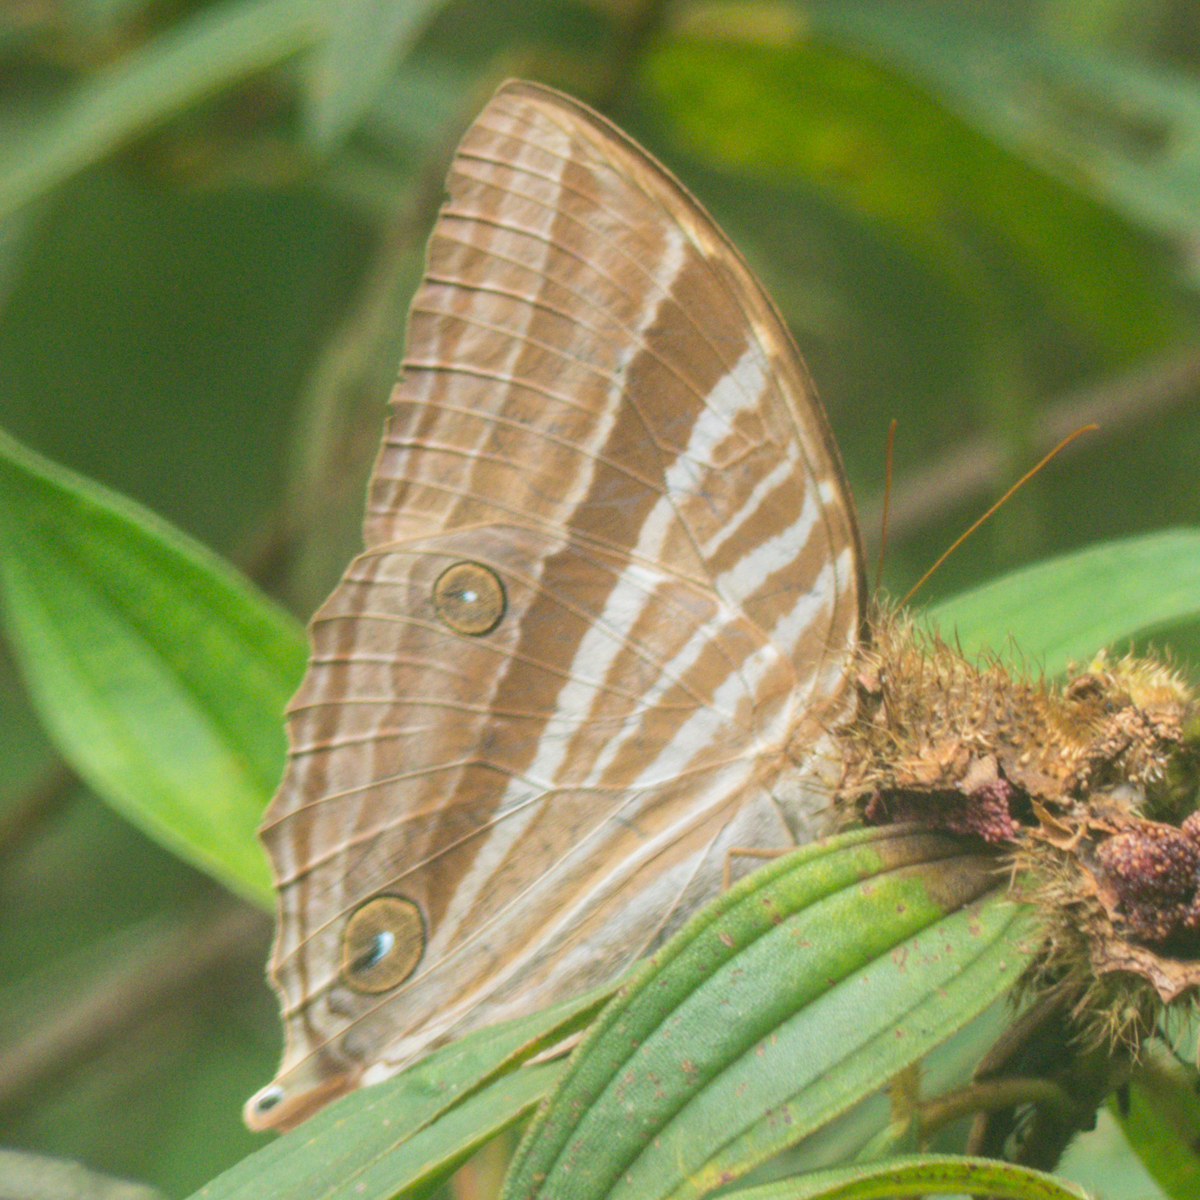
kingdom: Animalia
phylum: Arthropoda
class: Insecta
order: Lepidoptera
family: Nymphalidae
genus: Amathusia
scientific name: Amathusia phidippus
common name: Palm king
